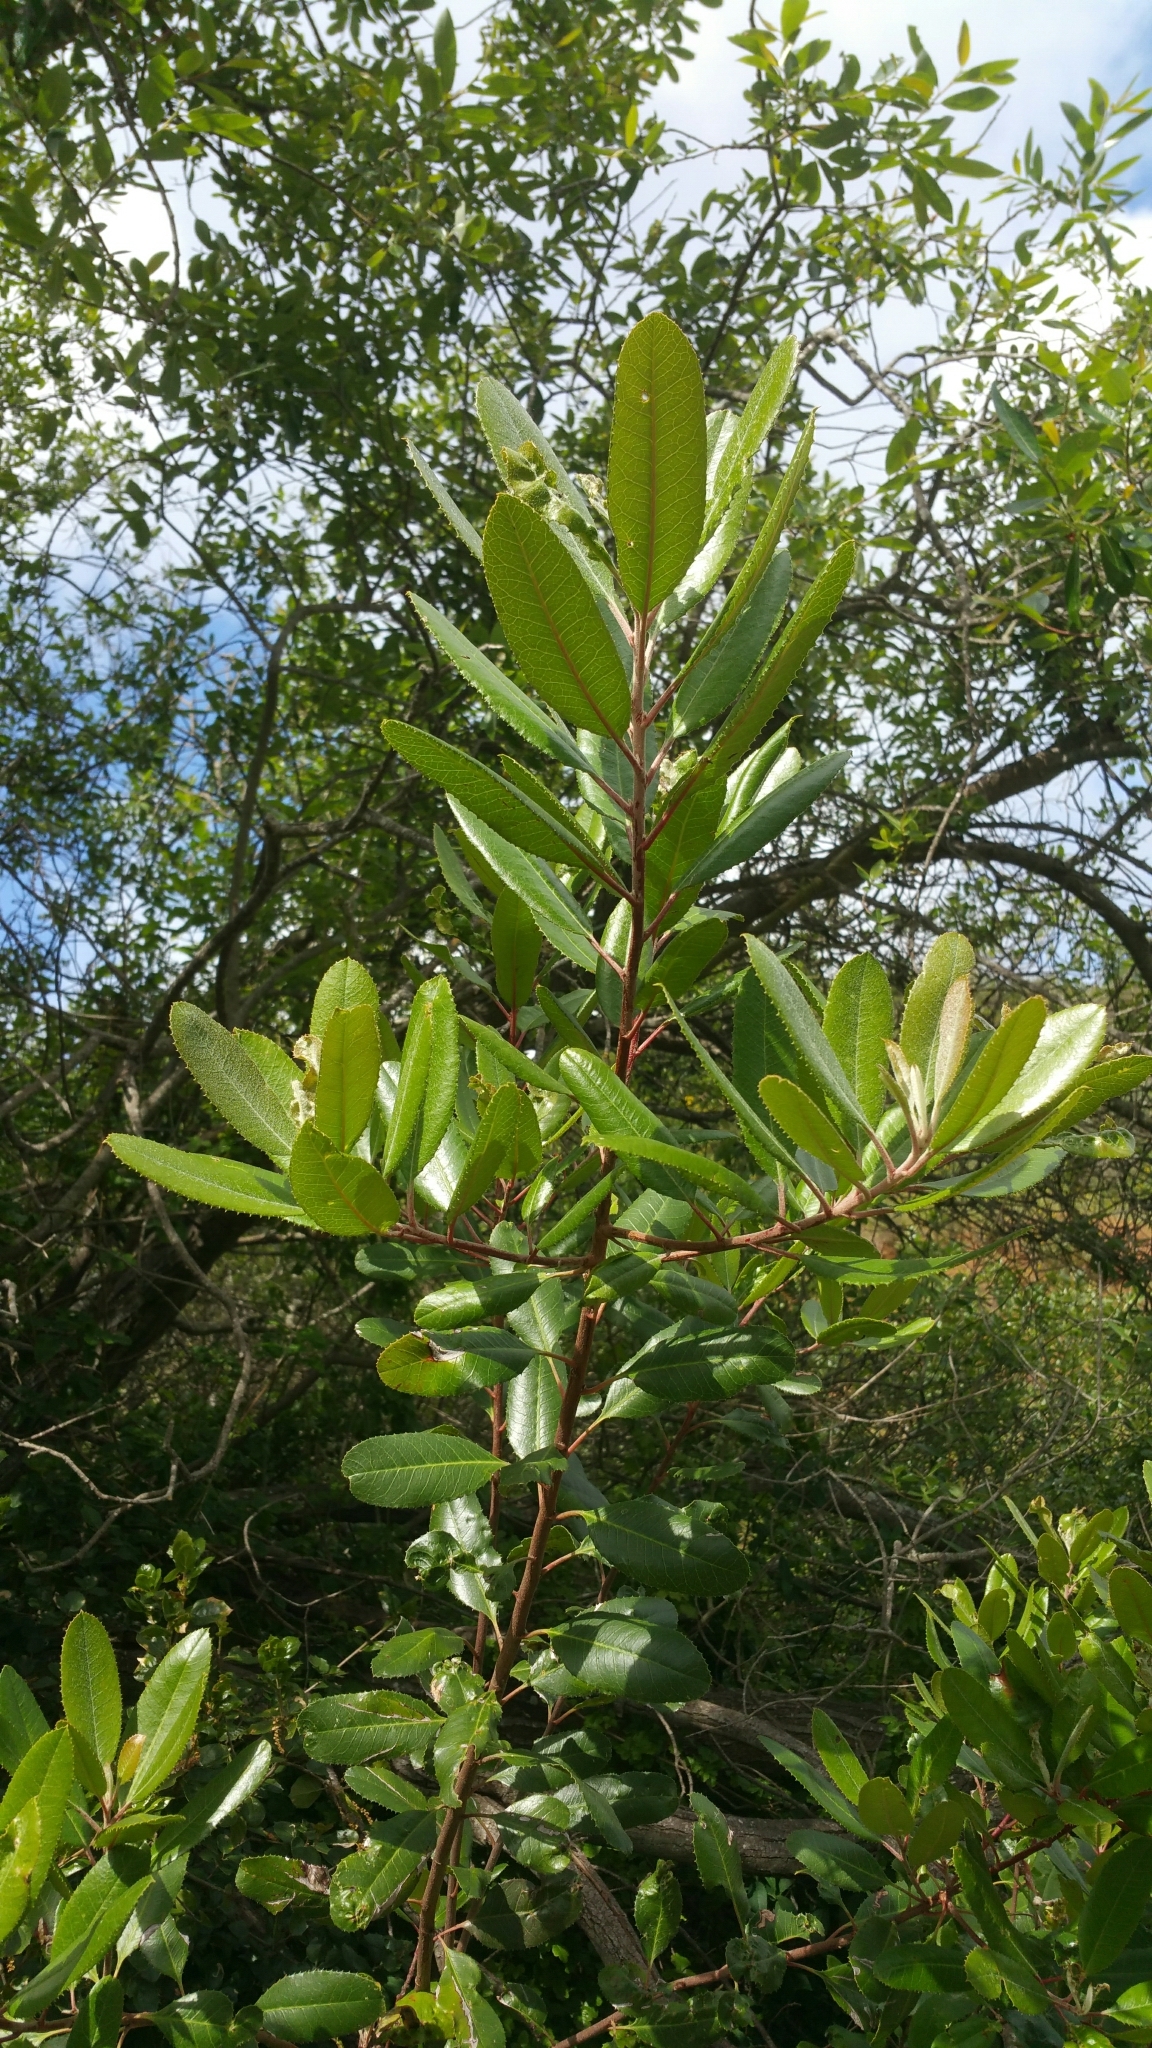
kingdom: Plantae
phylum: Tracheophyta
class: Magnoliopsida
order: Rosales
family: Rosaceae
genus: Heteromeles
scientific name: Heteromeles arbutifolia
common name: California-holly
